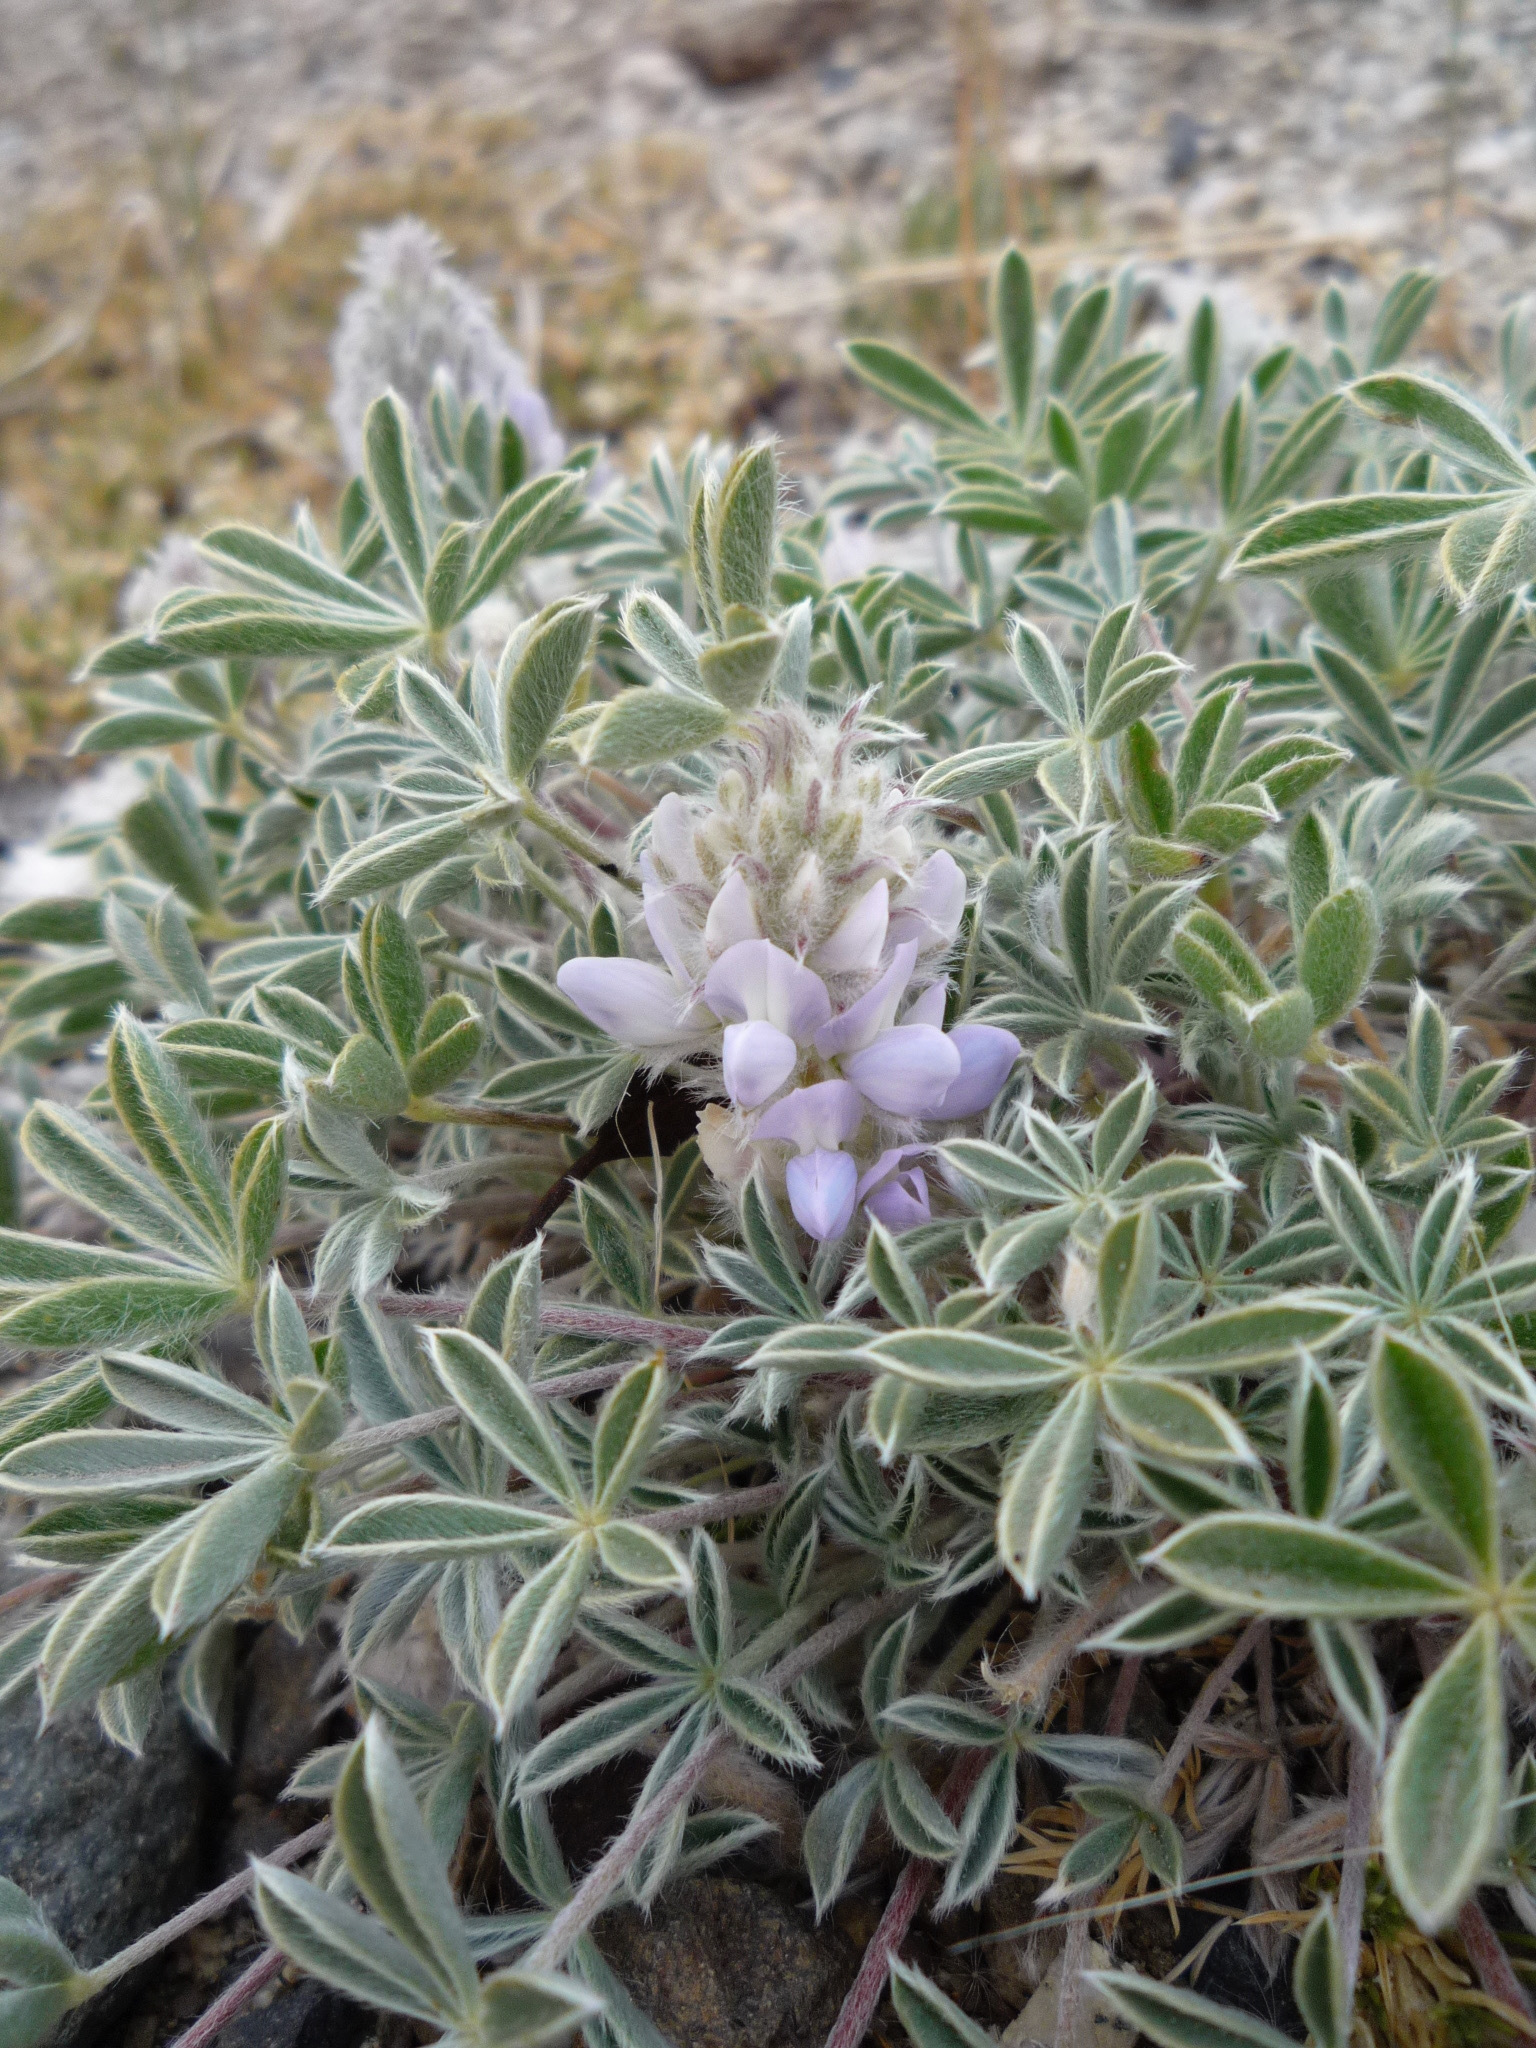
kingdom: Plantae
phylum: Tracheophyta
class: Magnoliopsida
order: Fabales
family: Fabaceae
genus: Lupinus
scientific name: Lupinus aridus
